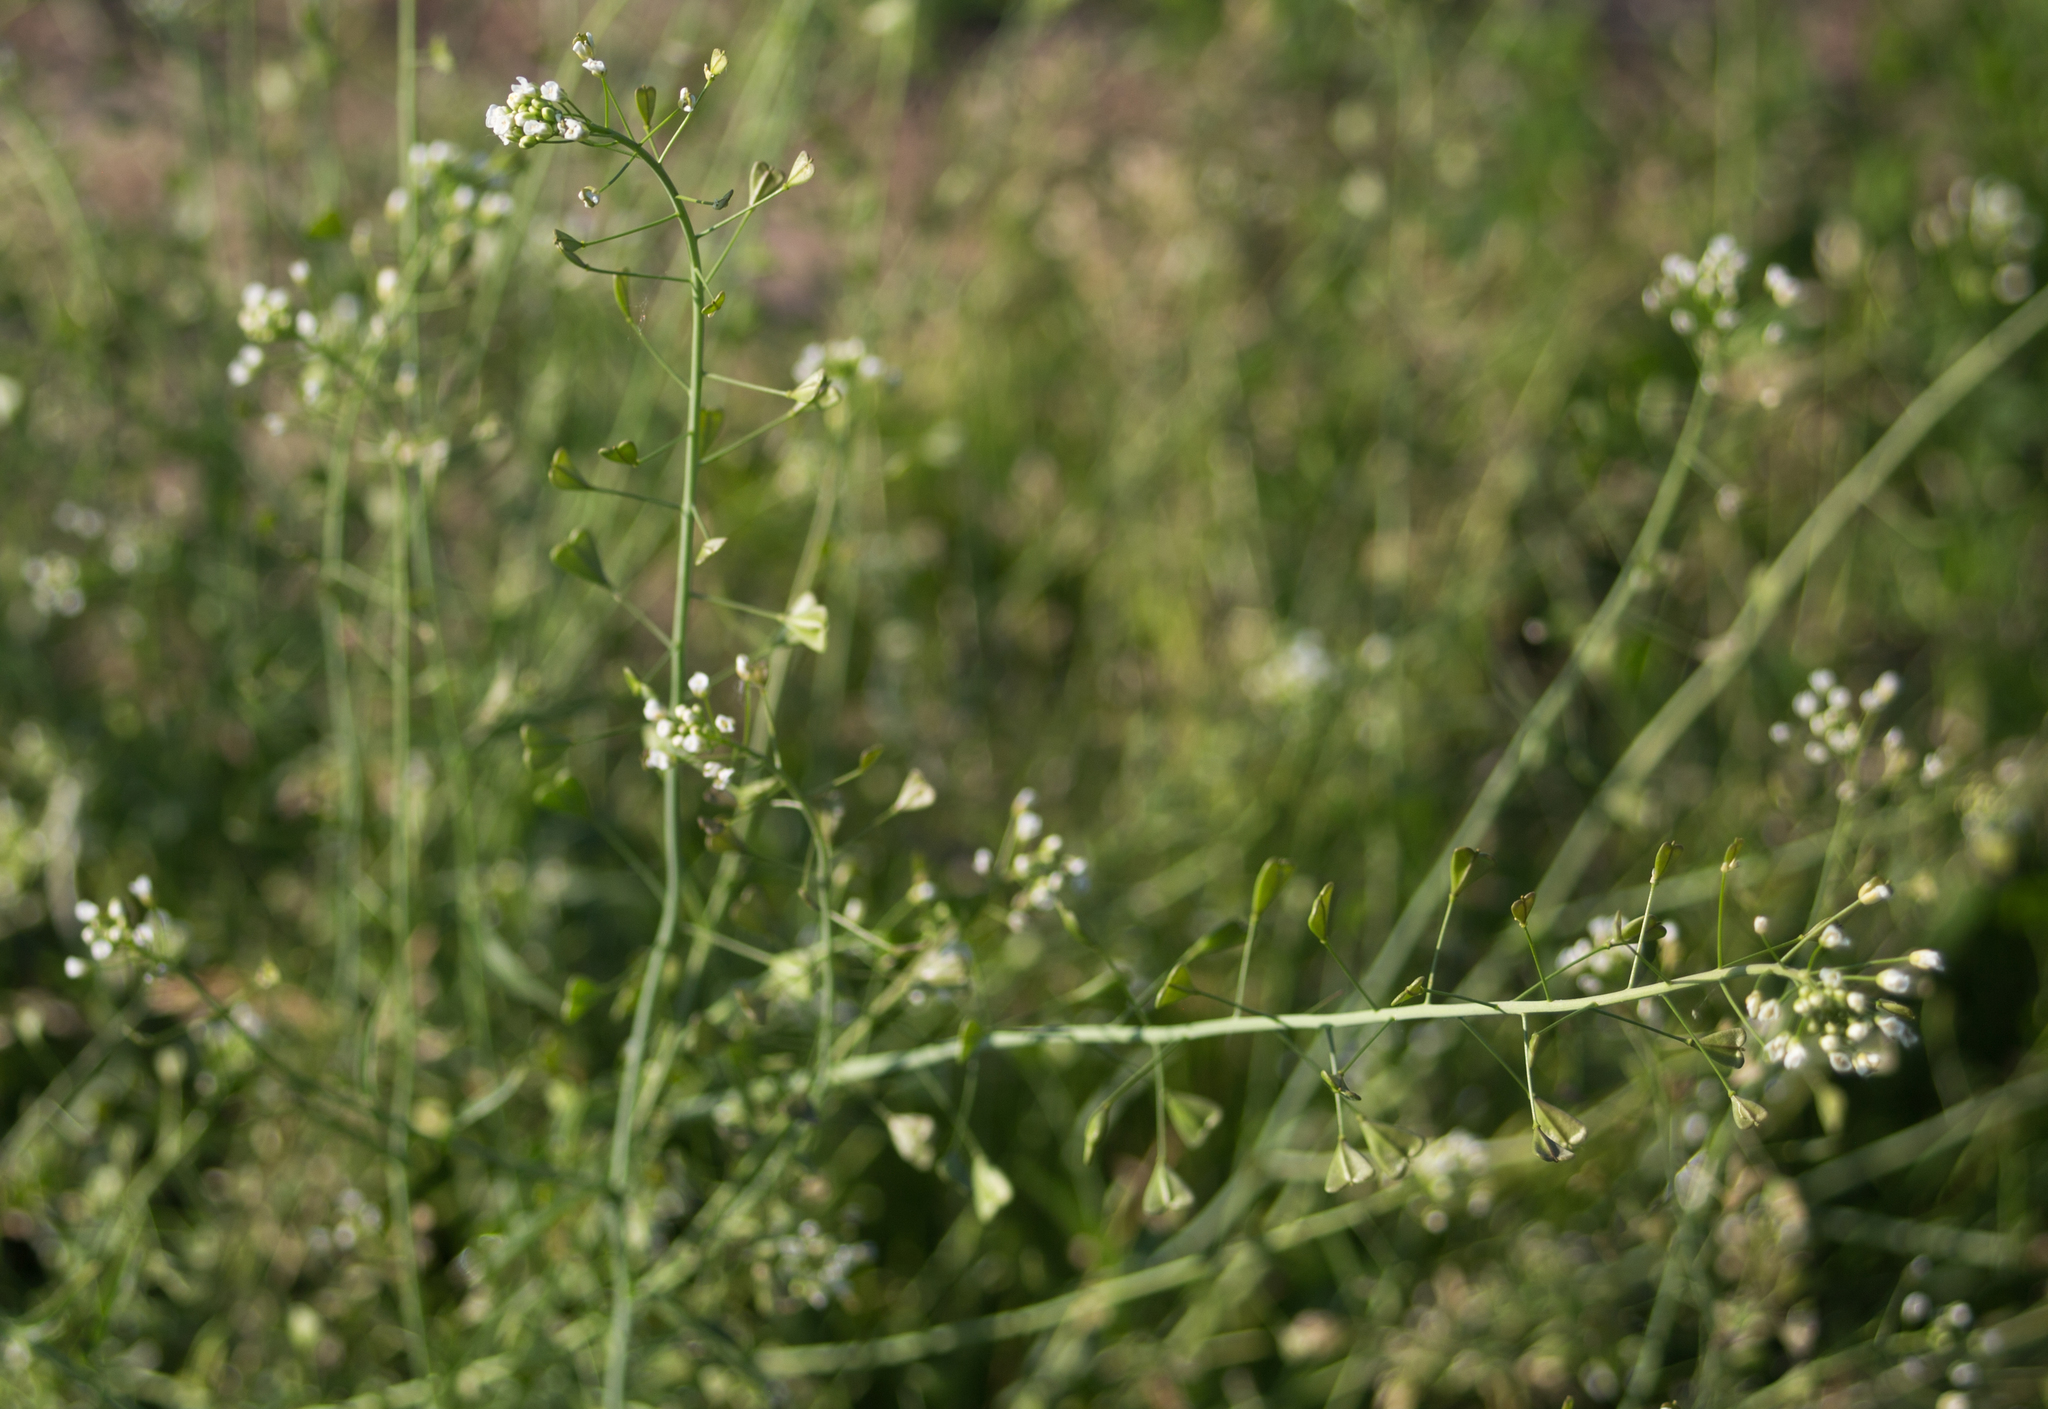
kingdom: Plantae
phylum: Tracheophyta
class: Magnoliopsida
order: Brassicales
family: Brassicaceae
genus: Capsella
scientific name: Capsella bursa-pastoris
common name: Shepherd's purse
